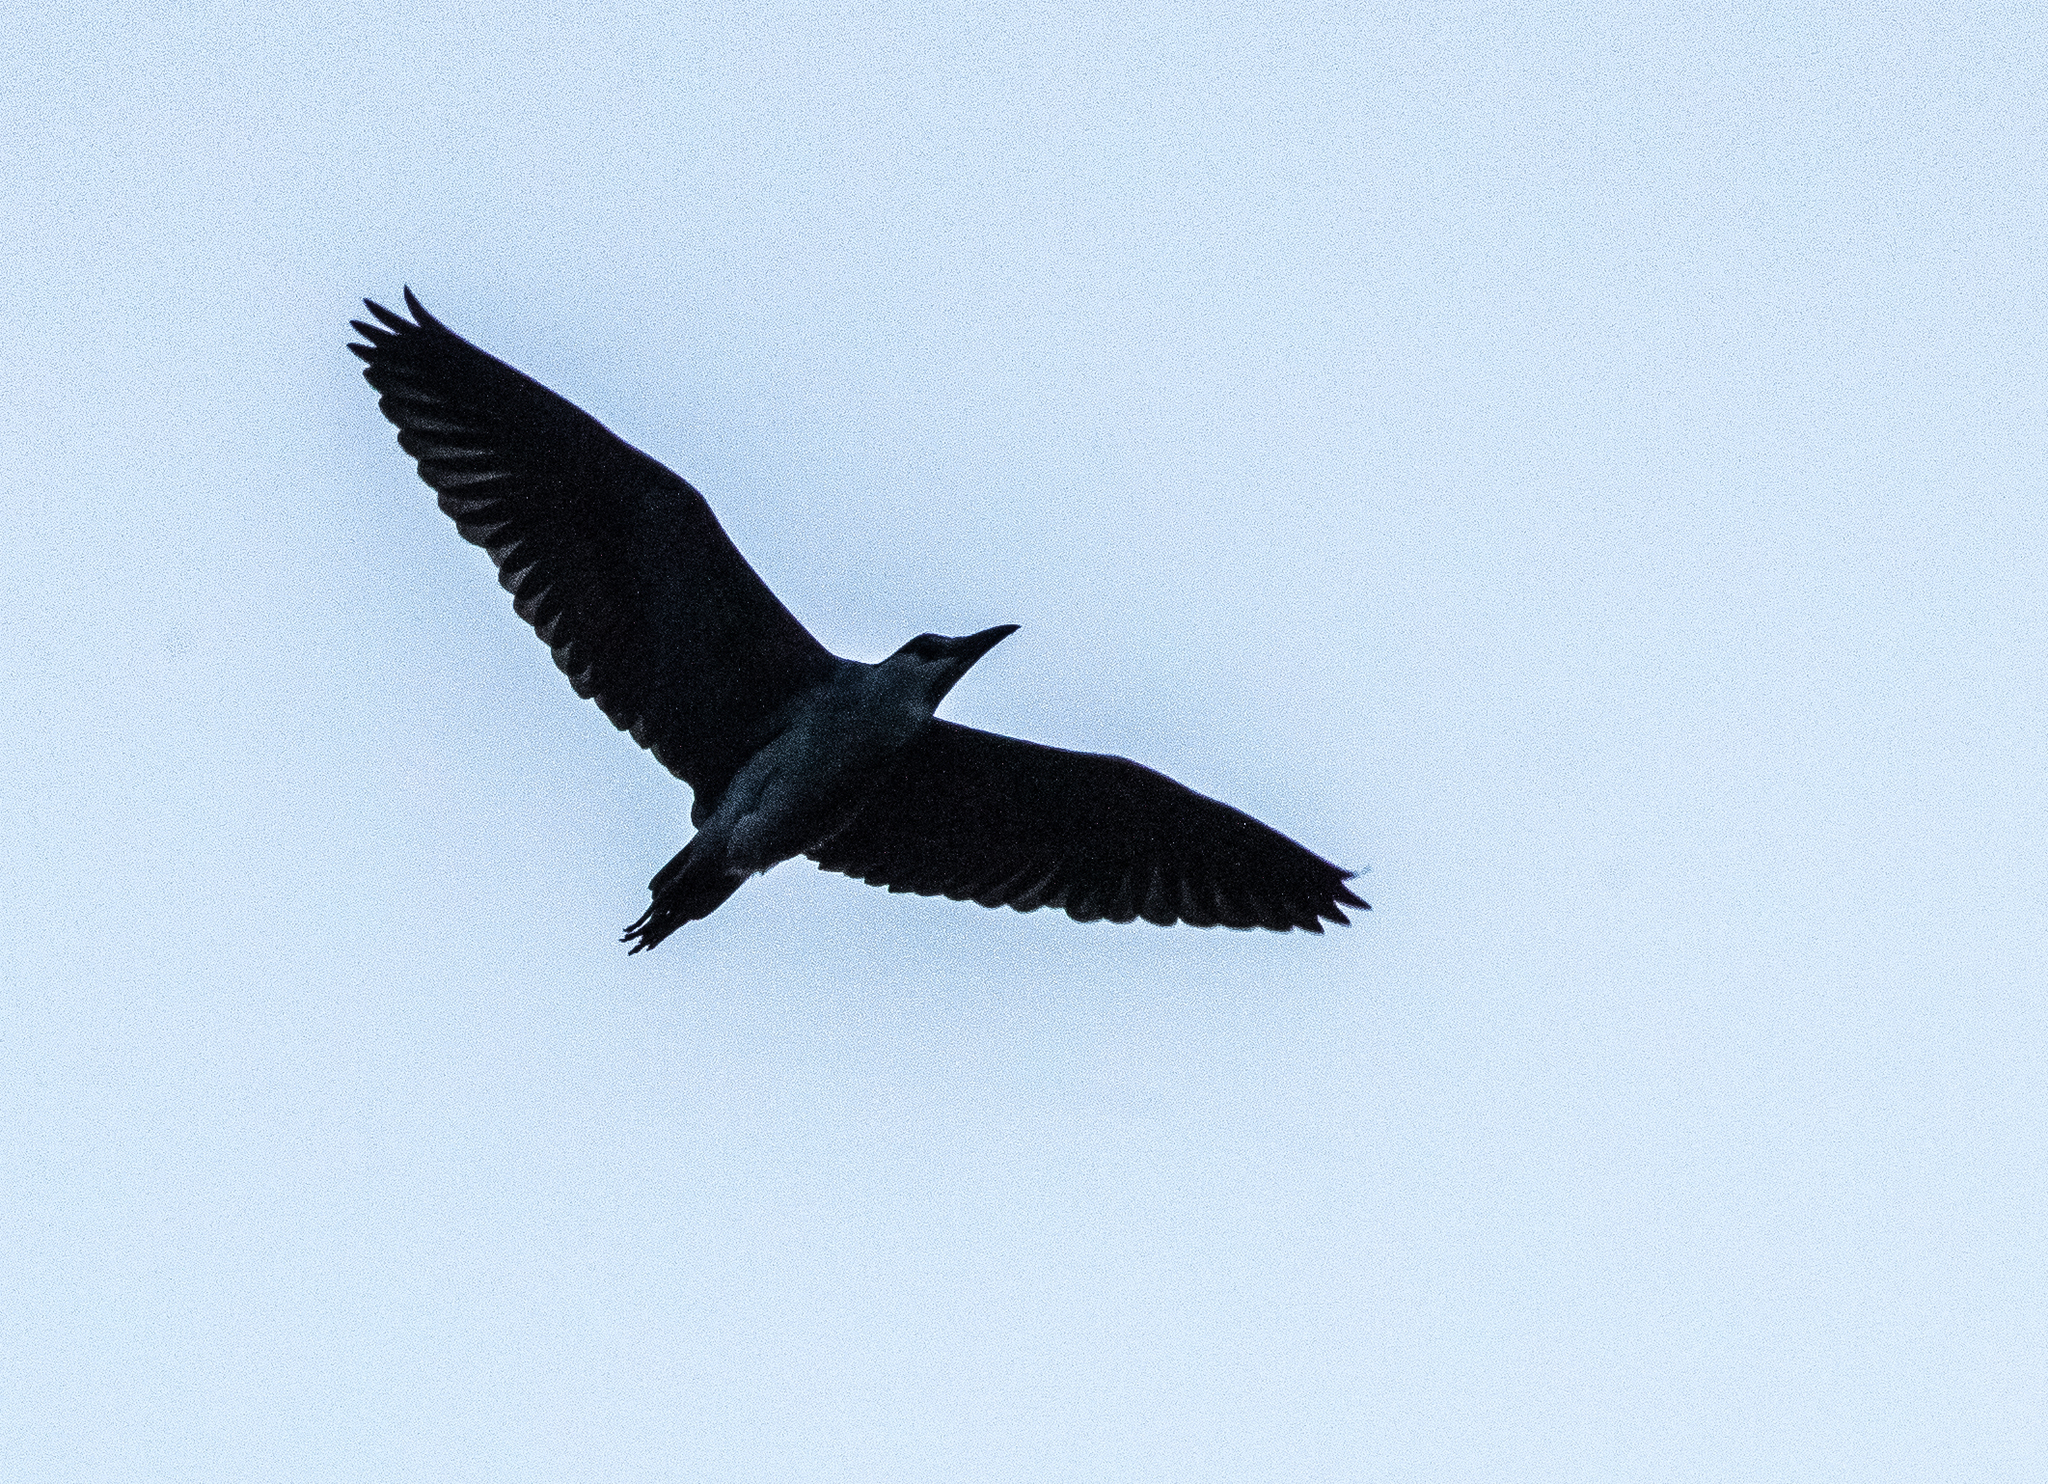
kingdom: Animalia
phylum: Chordata
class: Aves
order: Pelecaniformes
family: Ardeidae
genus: Nycticorax
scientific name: Nycticorax nycticorax
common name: Black-crowned night heron
